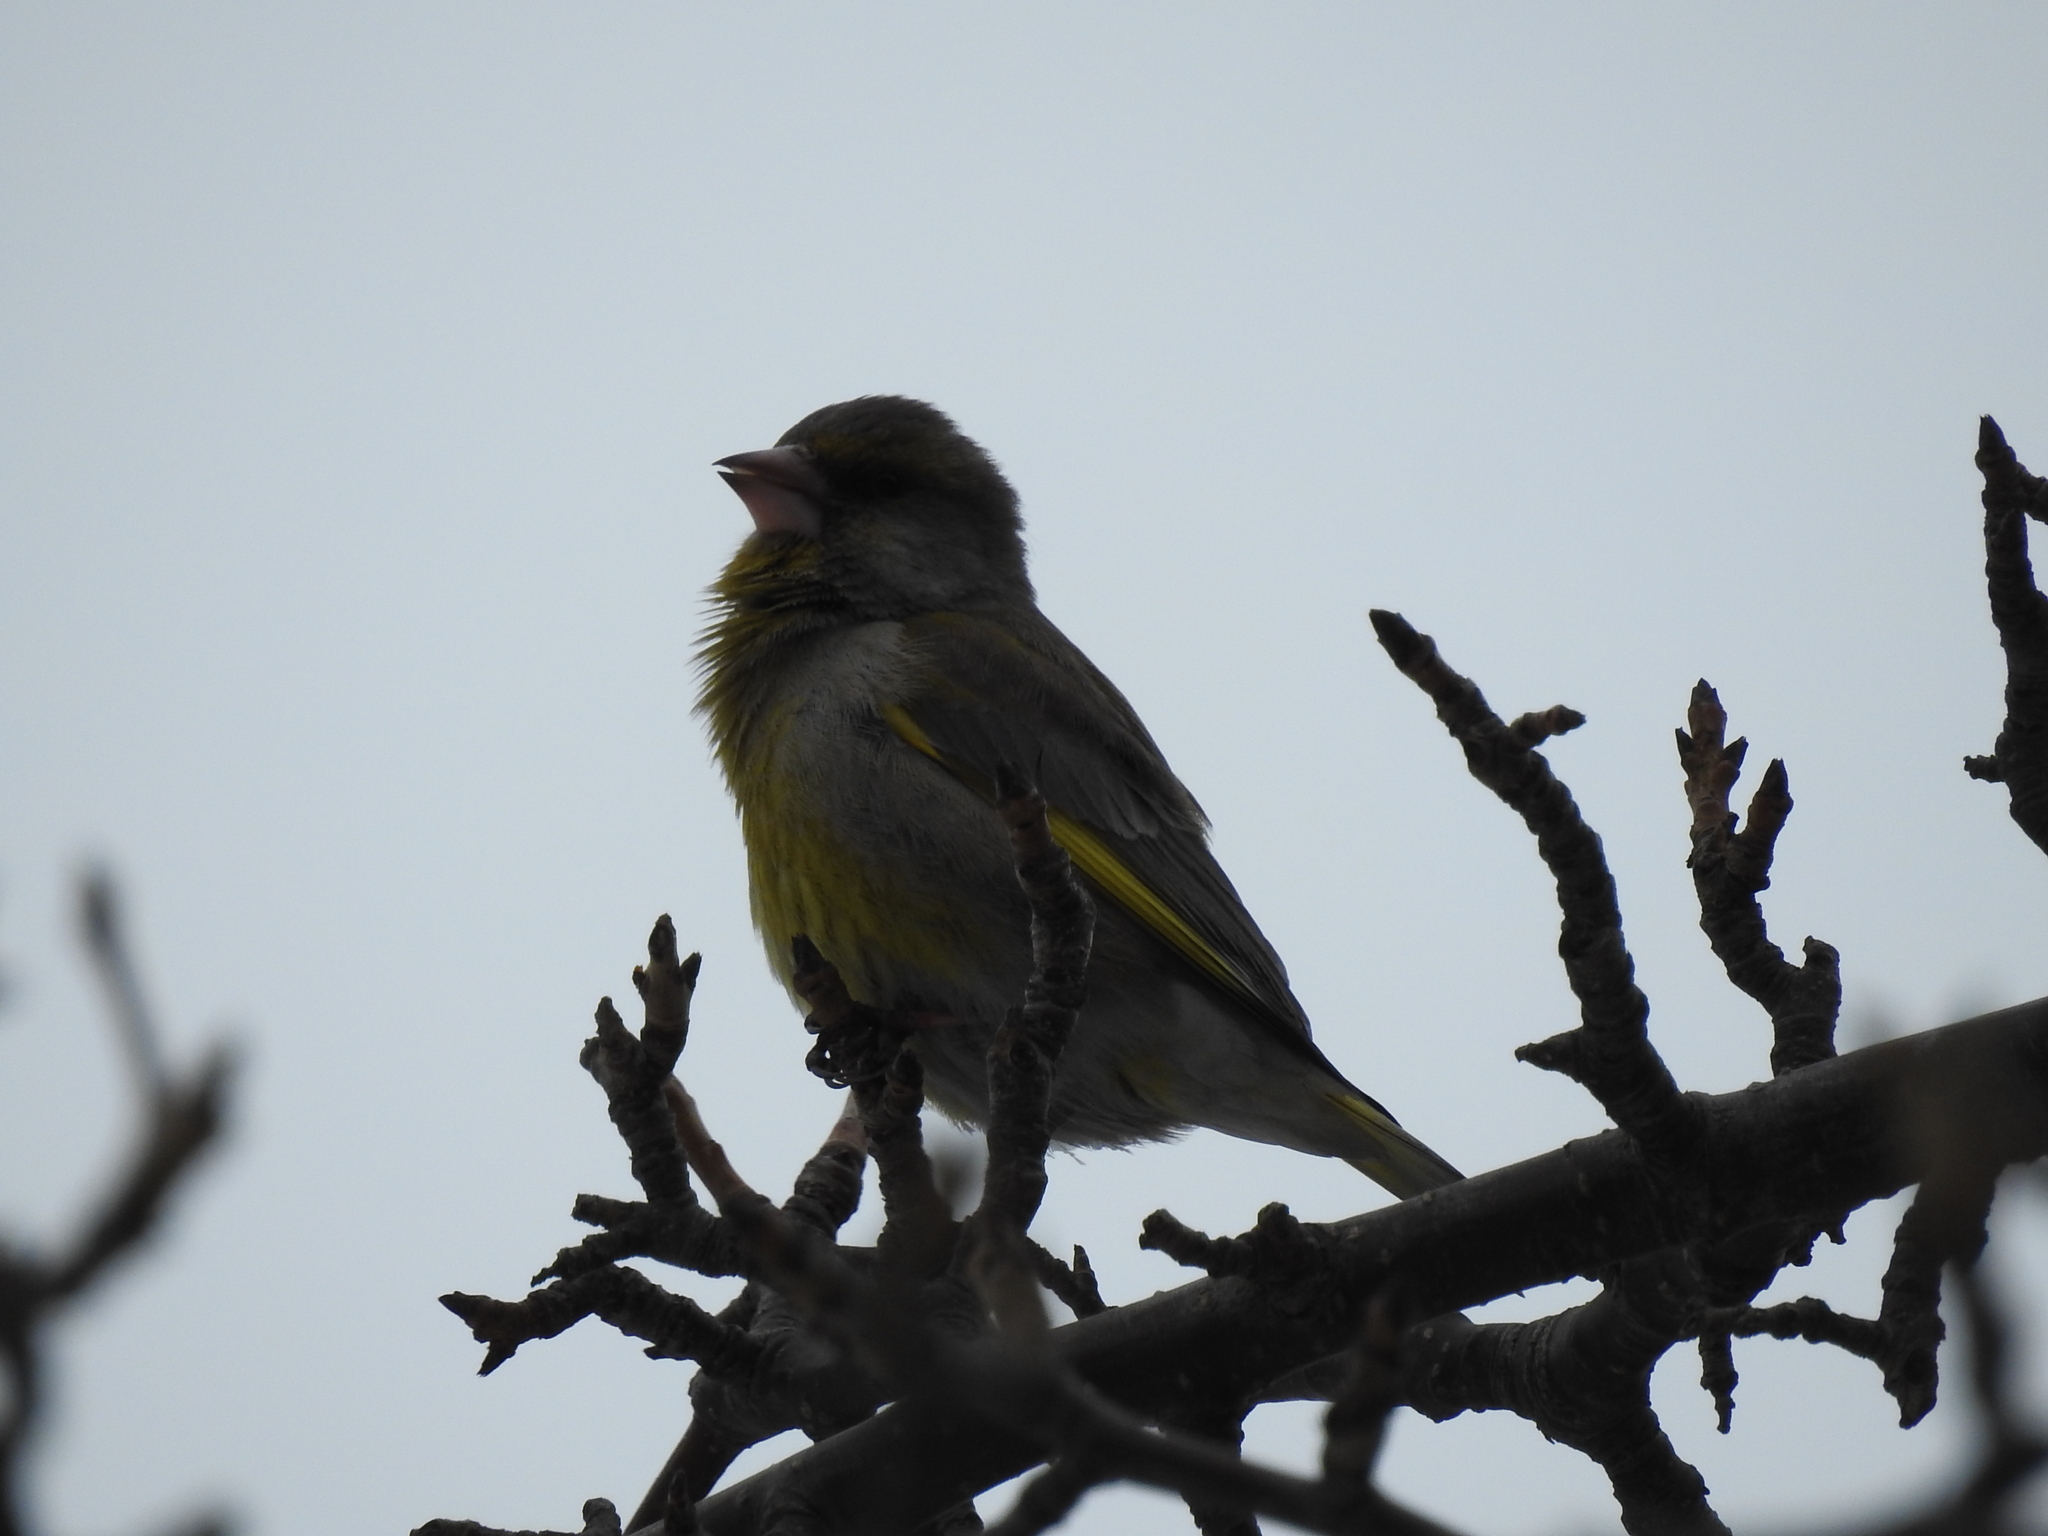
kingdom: Plantae
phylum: Tracheophyta
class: Liliopsida
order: Poales
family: Poaceae
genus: Chloris
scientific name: Chloris chloris
